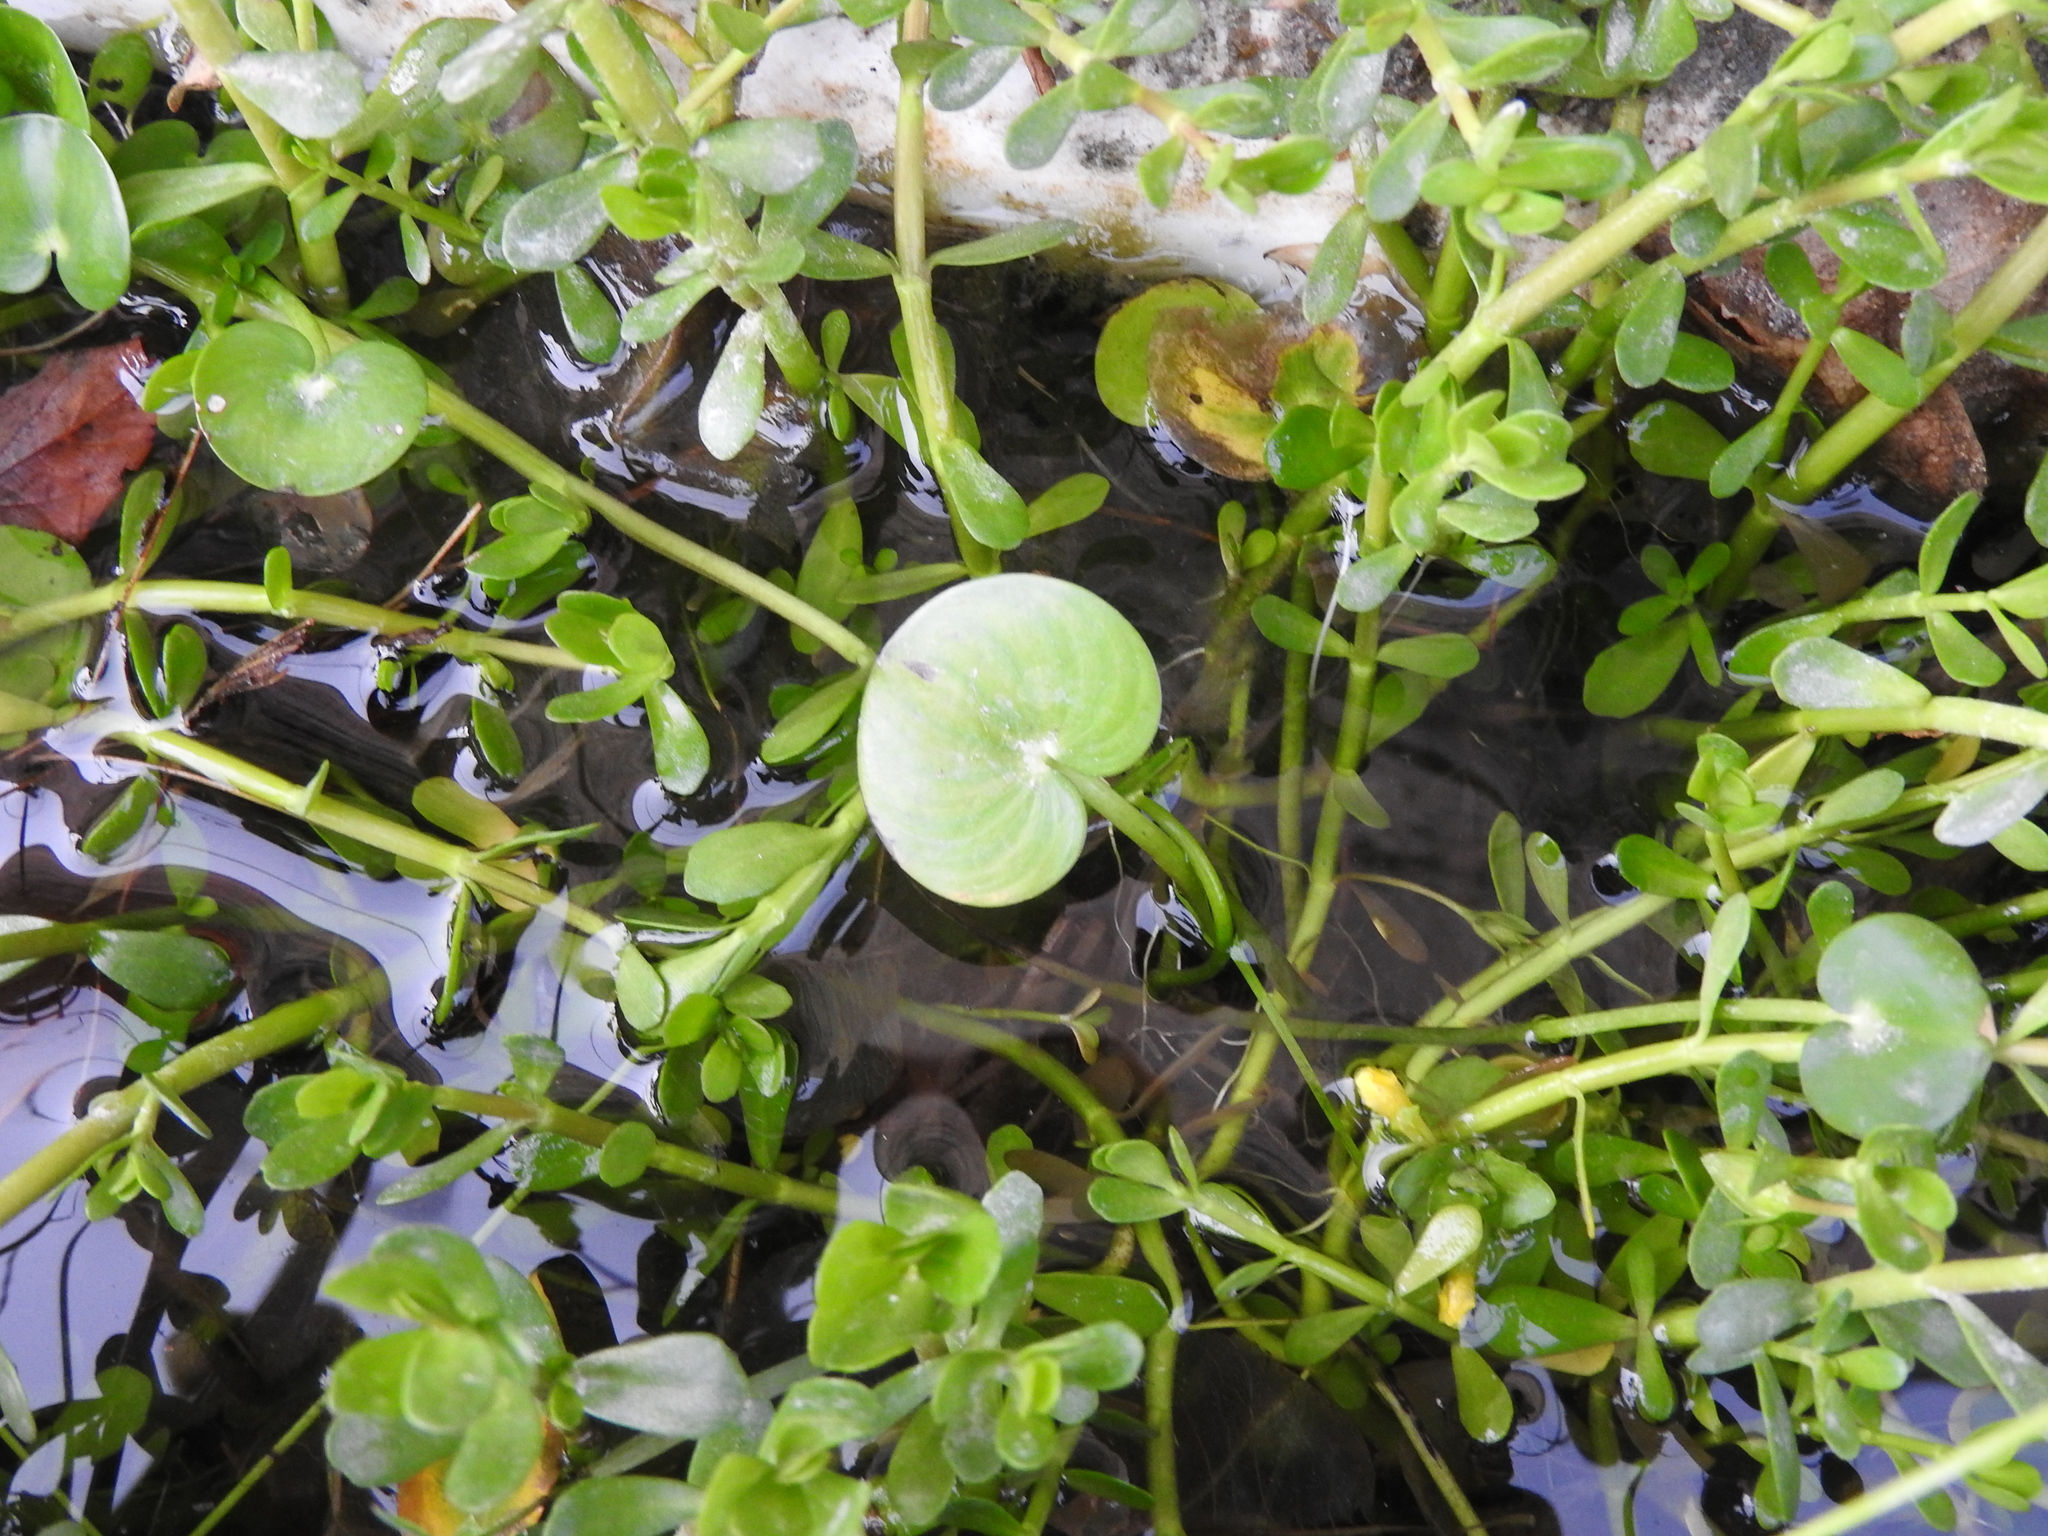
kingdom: Plantae
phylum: Tracheophyta
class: Liliopsida
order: Commelinales
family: Pontederiaceae
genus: Heteranthera
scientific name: Heteranthera reniformis
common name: Kidneyleaf mudplantain
